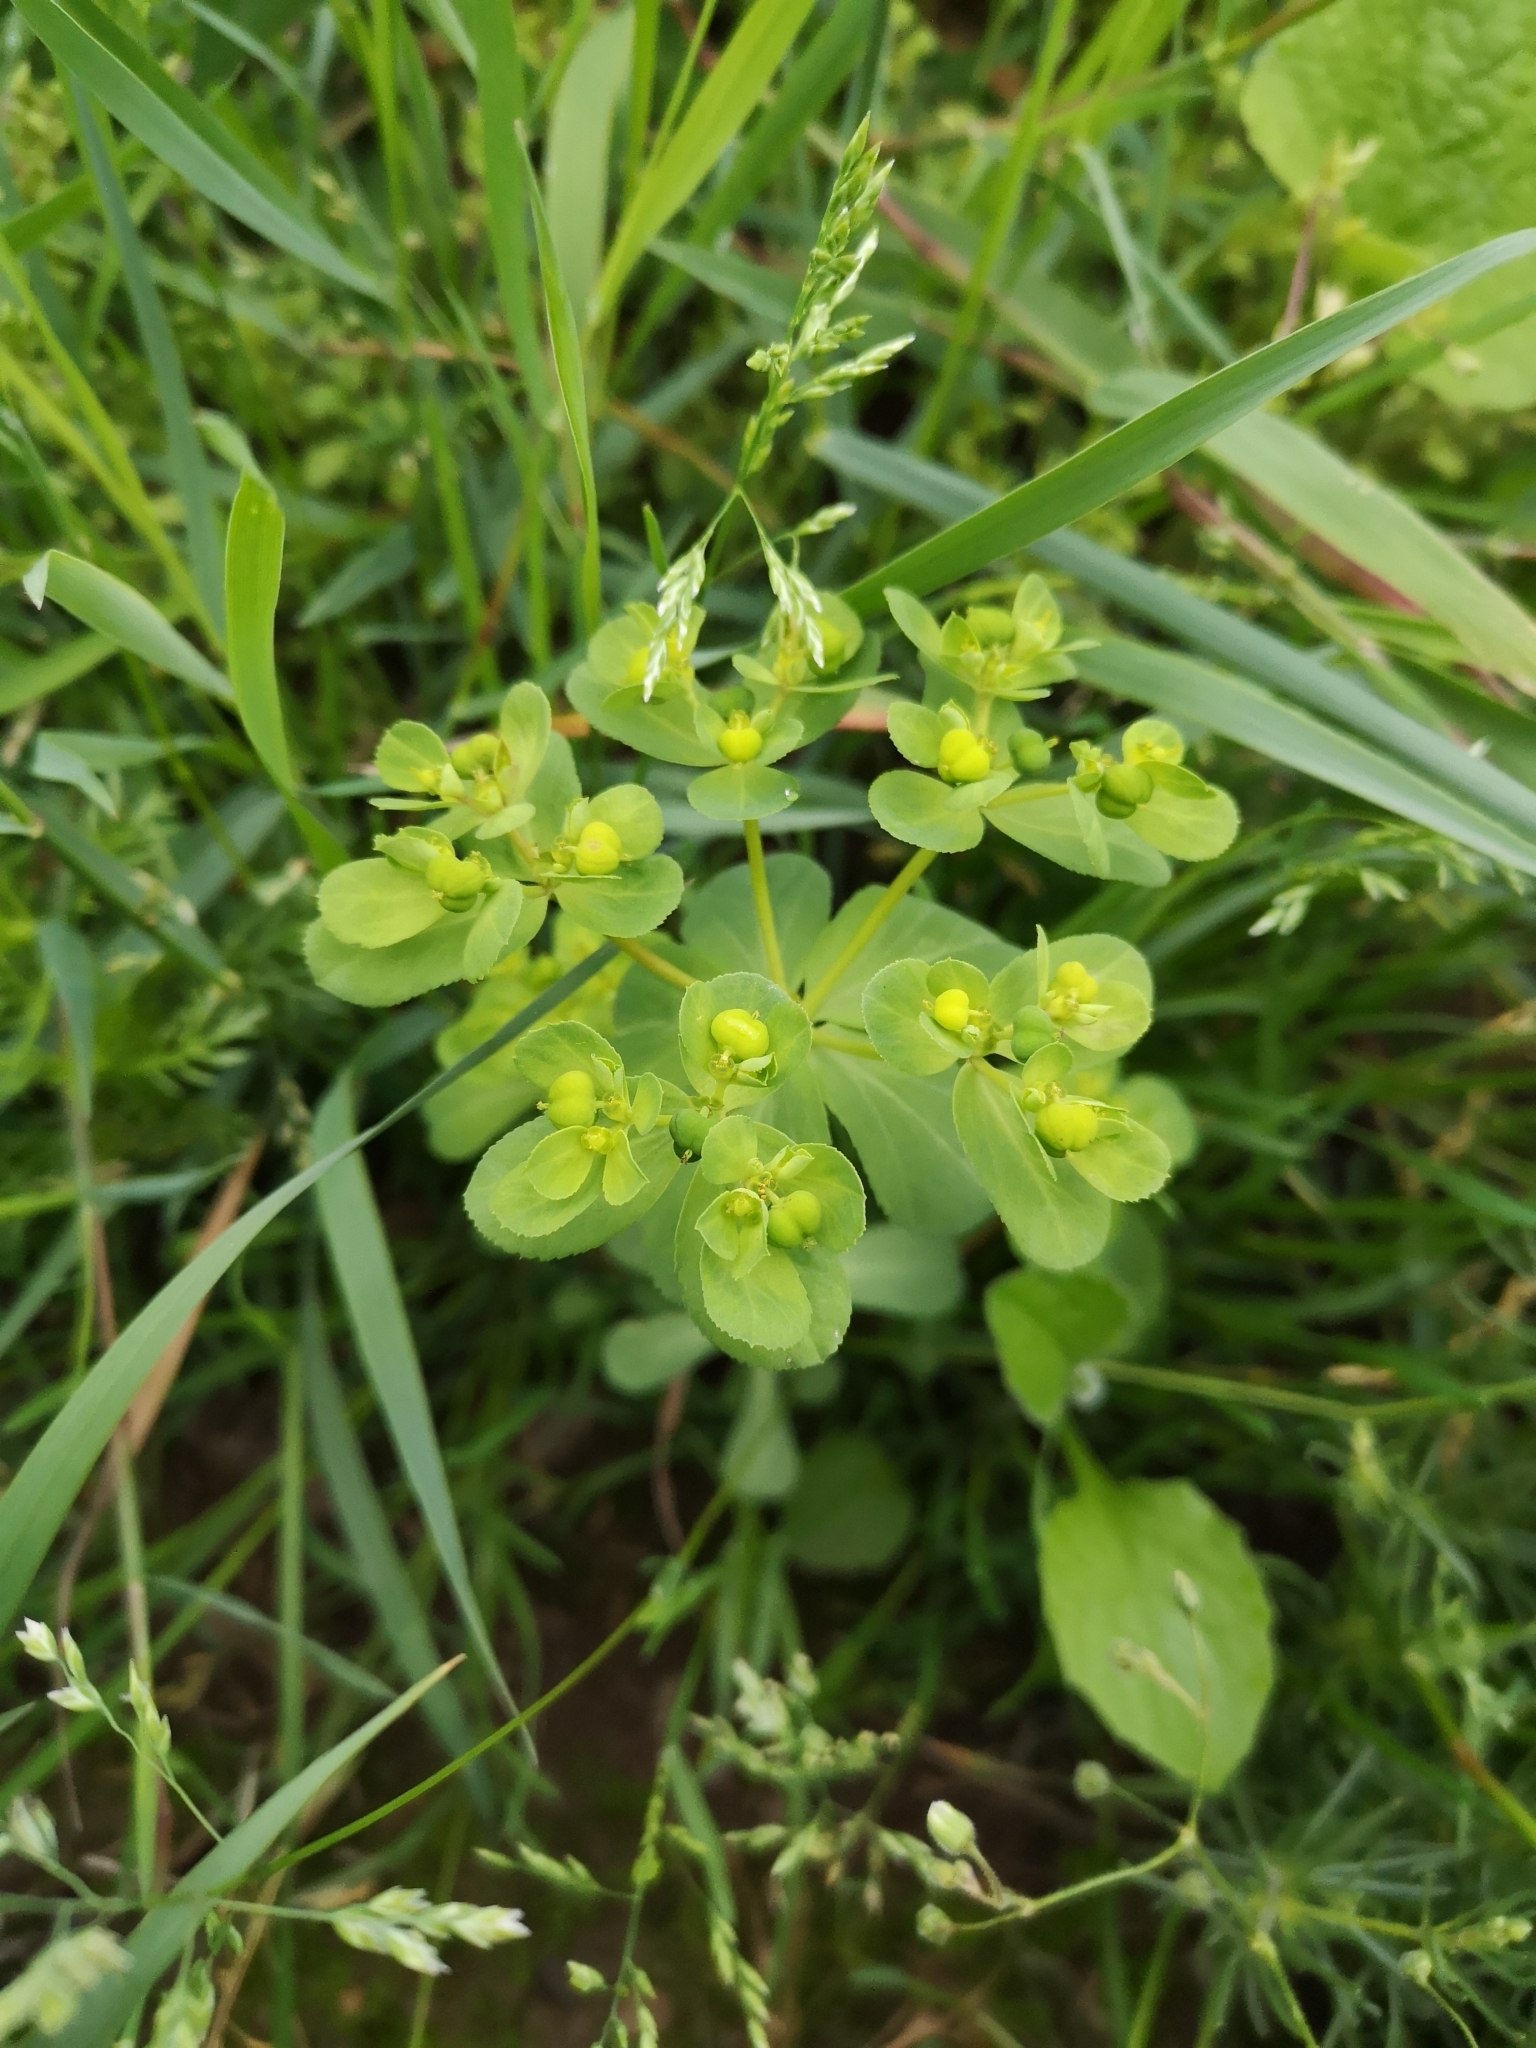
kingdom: Plantae
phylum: Tracheophyta
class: Magnoliopsida
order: Malpighiales
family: Euphorbiaceae
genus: Euphorbia
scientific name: Euphorbia helioscopia
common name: Sun spurge
